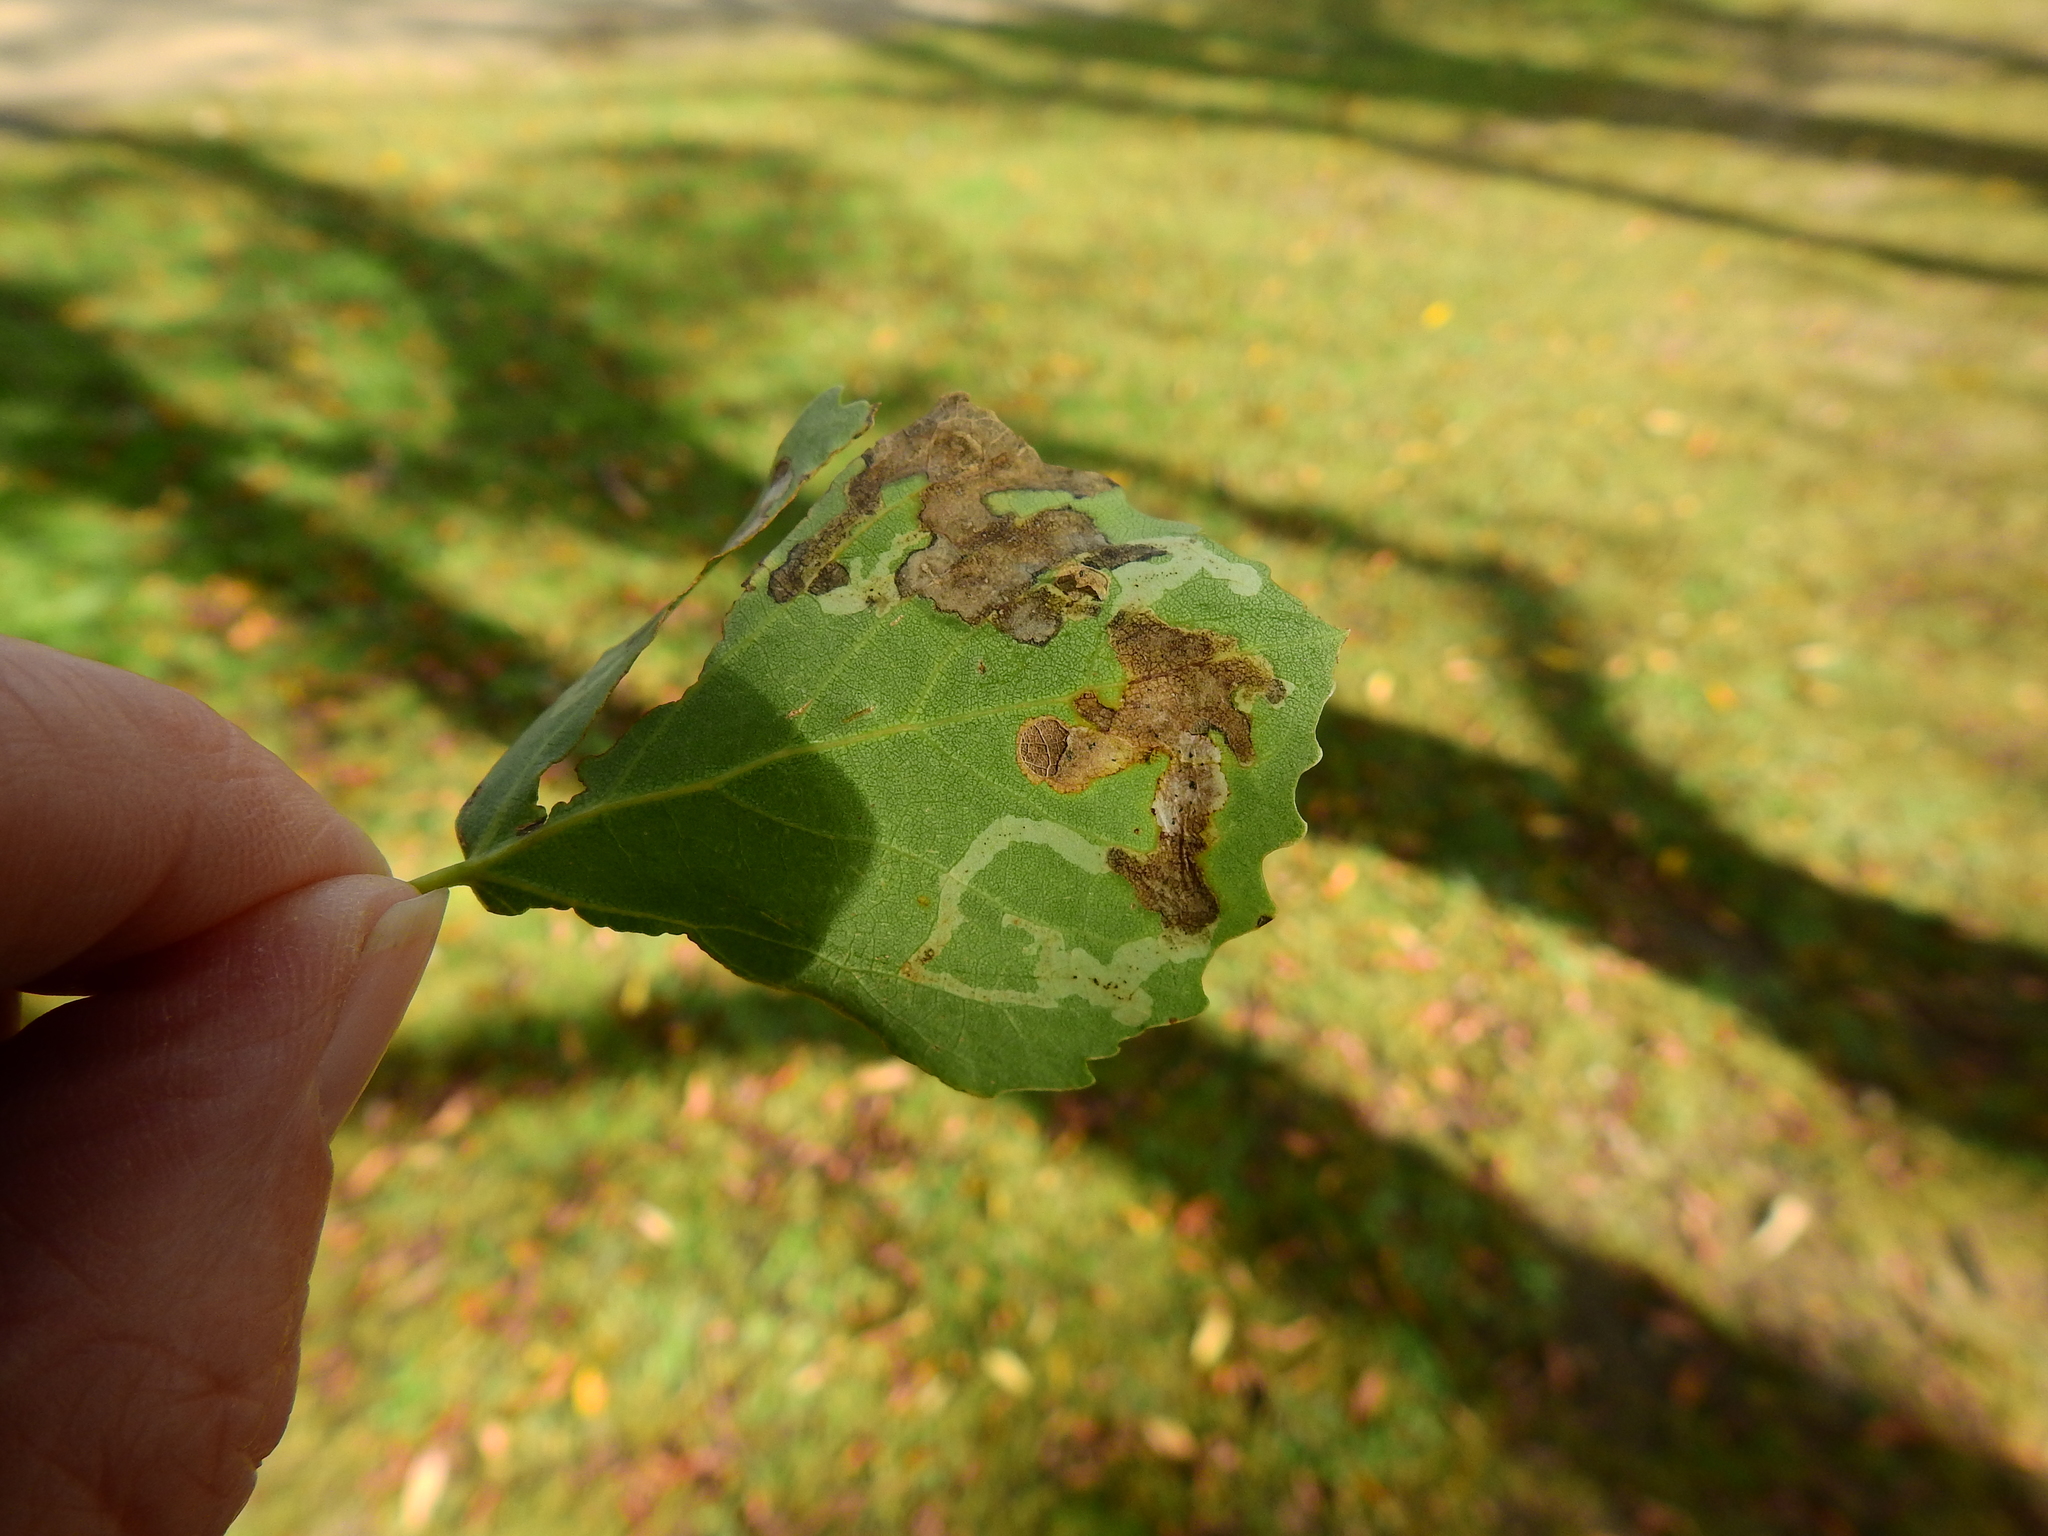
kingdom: Animalia
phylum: Arthropoda
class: Insecta
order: Diptera
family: Agromyzidae
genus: Aulagromyza
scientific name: Aulagromyza tremulae
